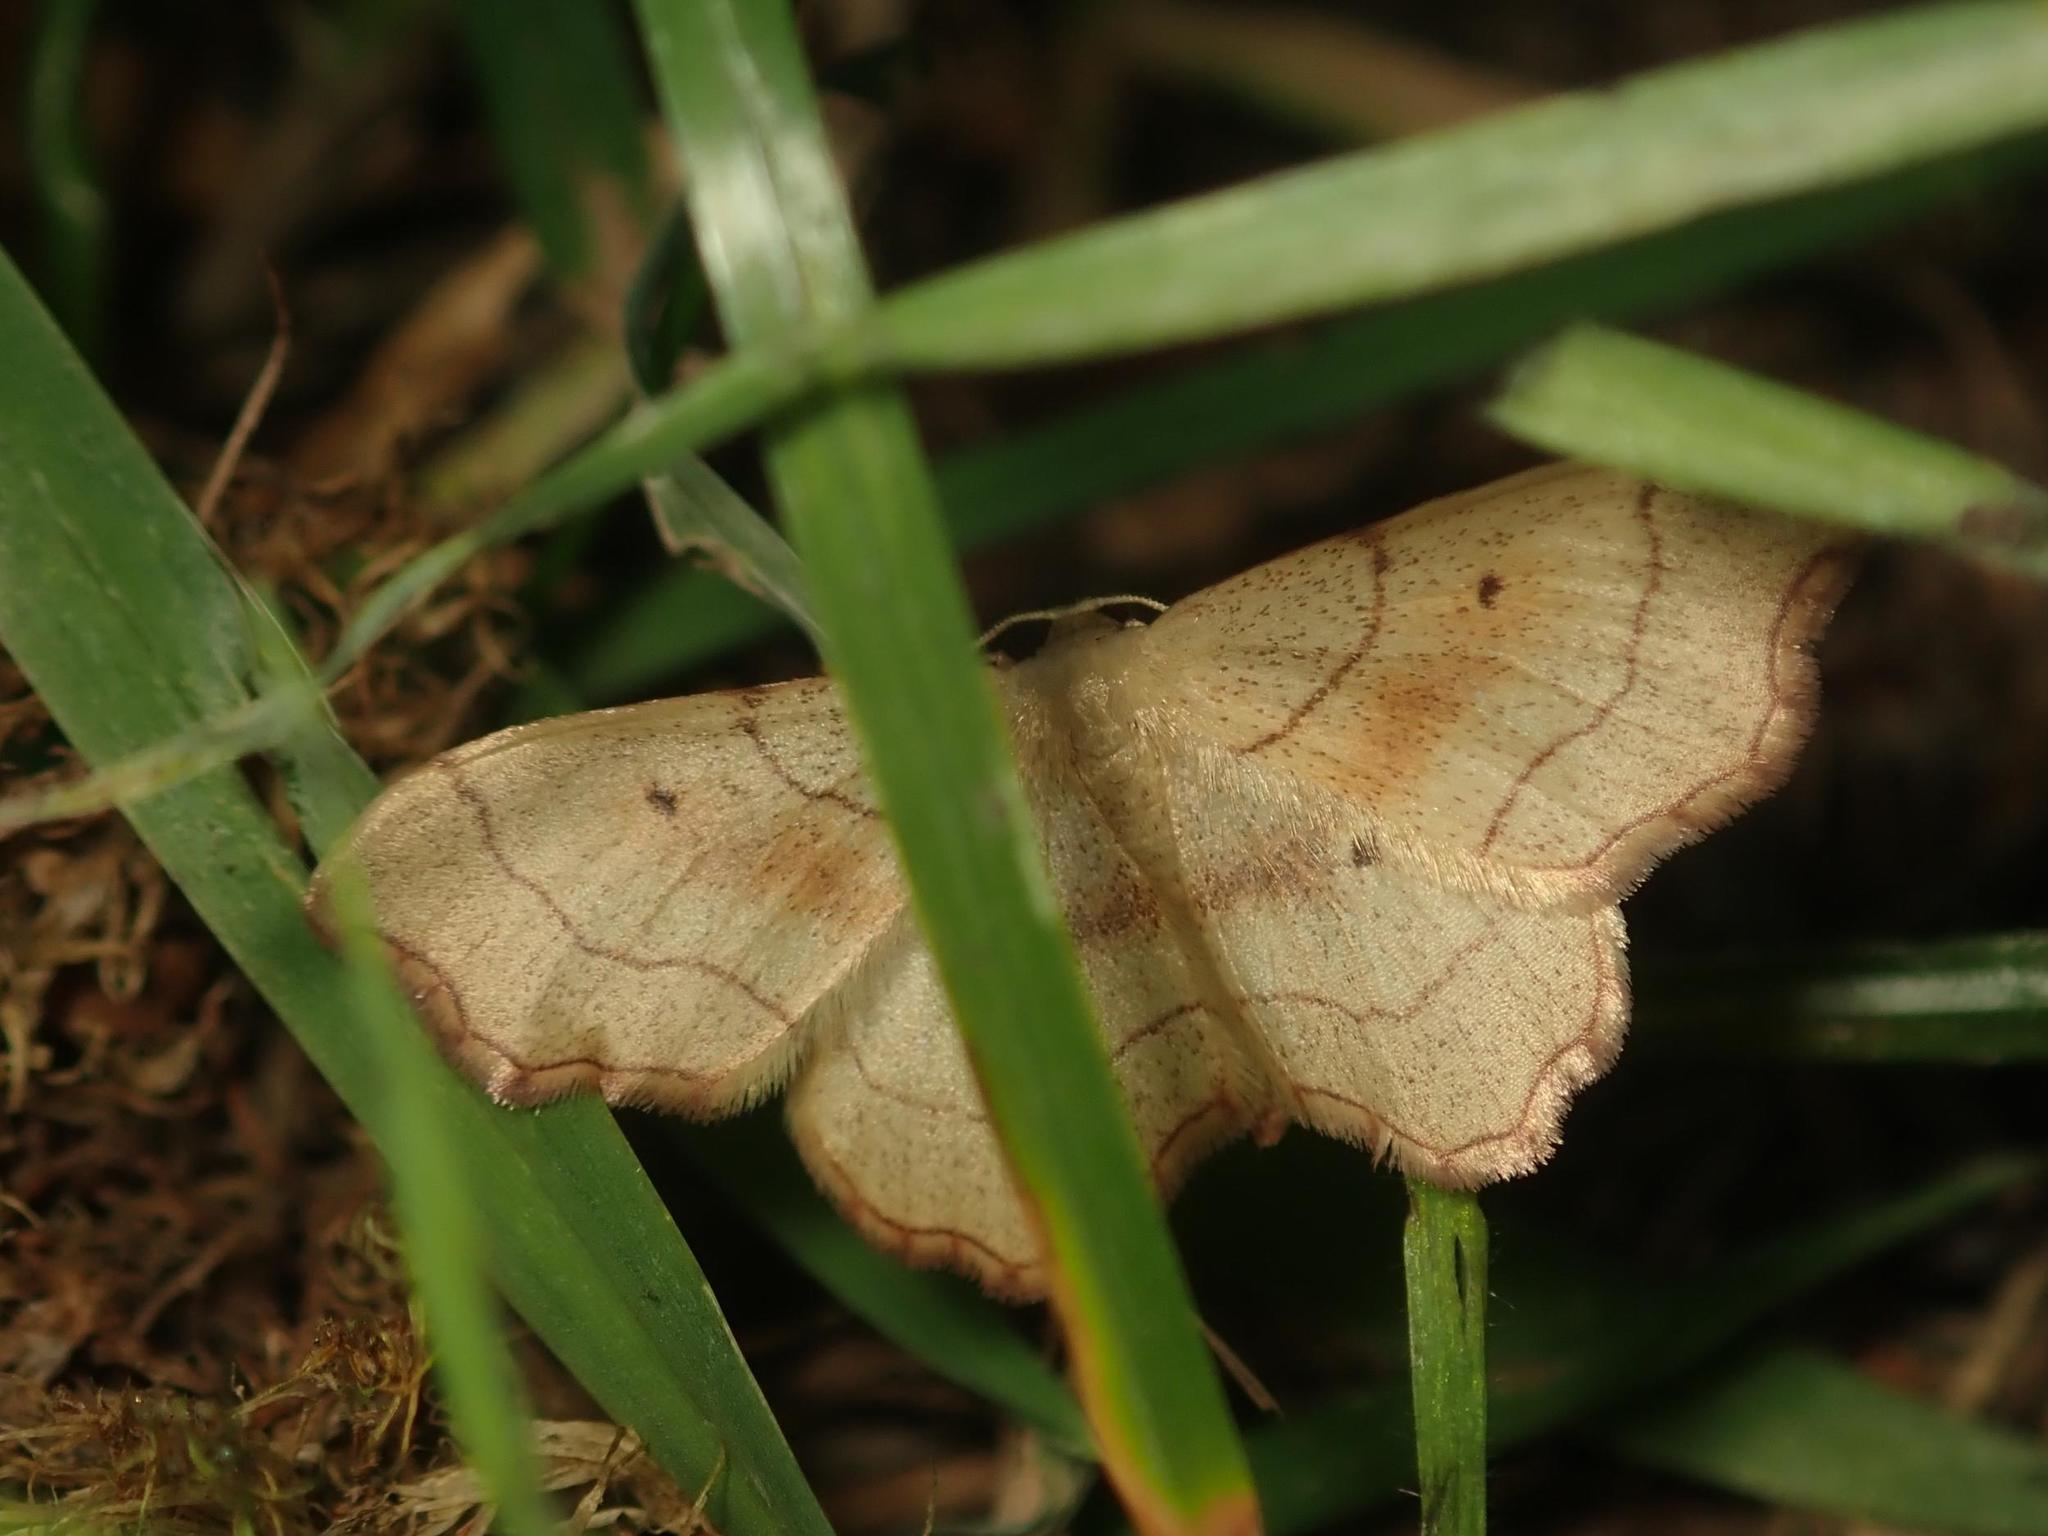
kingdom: Animalia
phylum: Arthropoda
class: Insecta
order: Lepidoptera
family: Geometridae
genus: Idaea
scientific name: Idaea emarginata
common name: Small scallop
